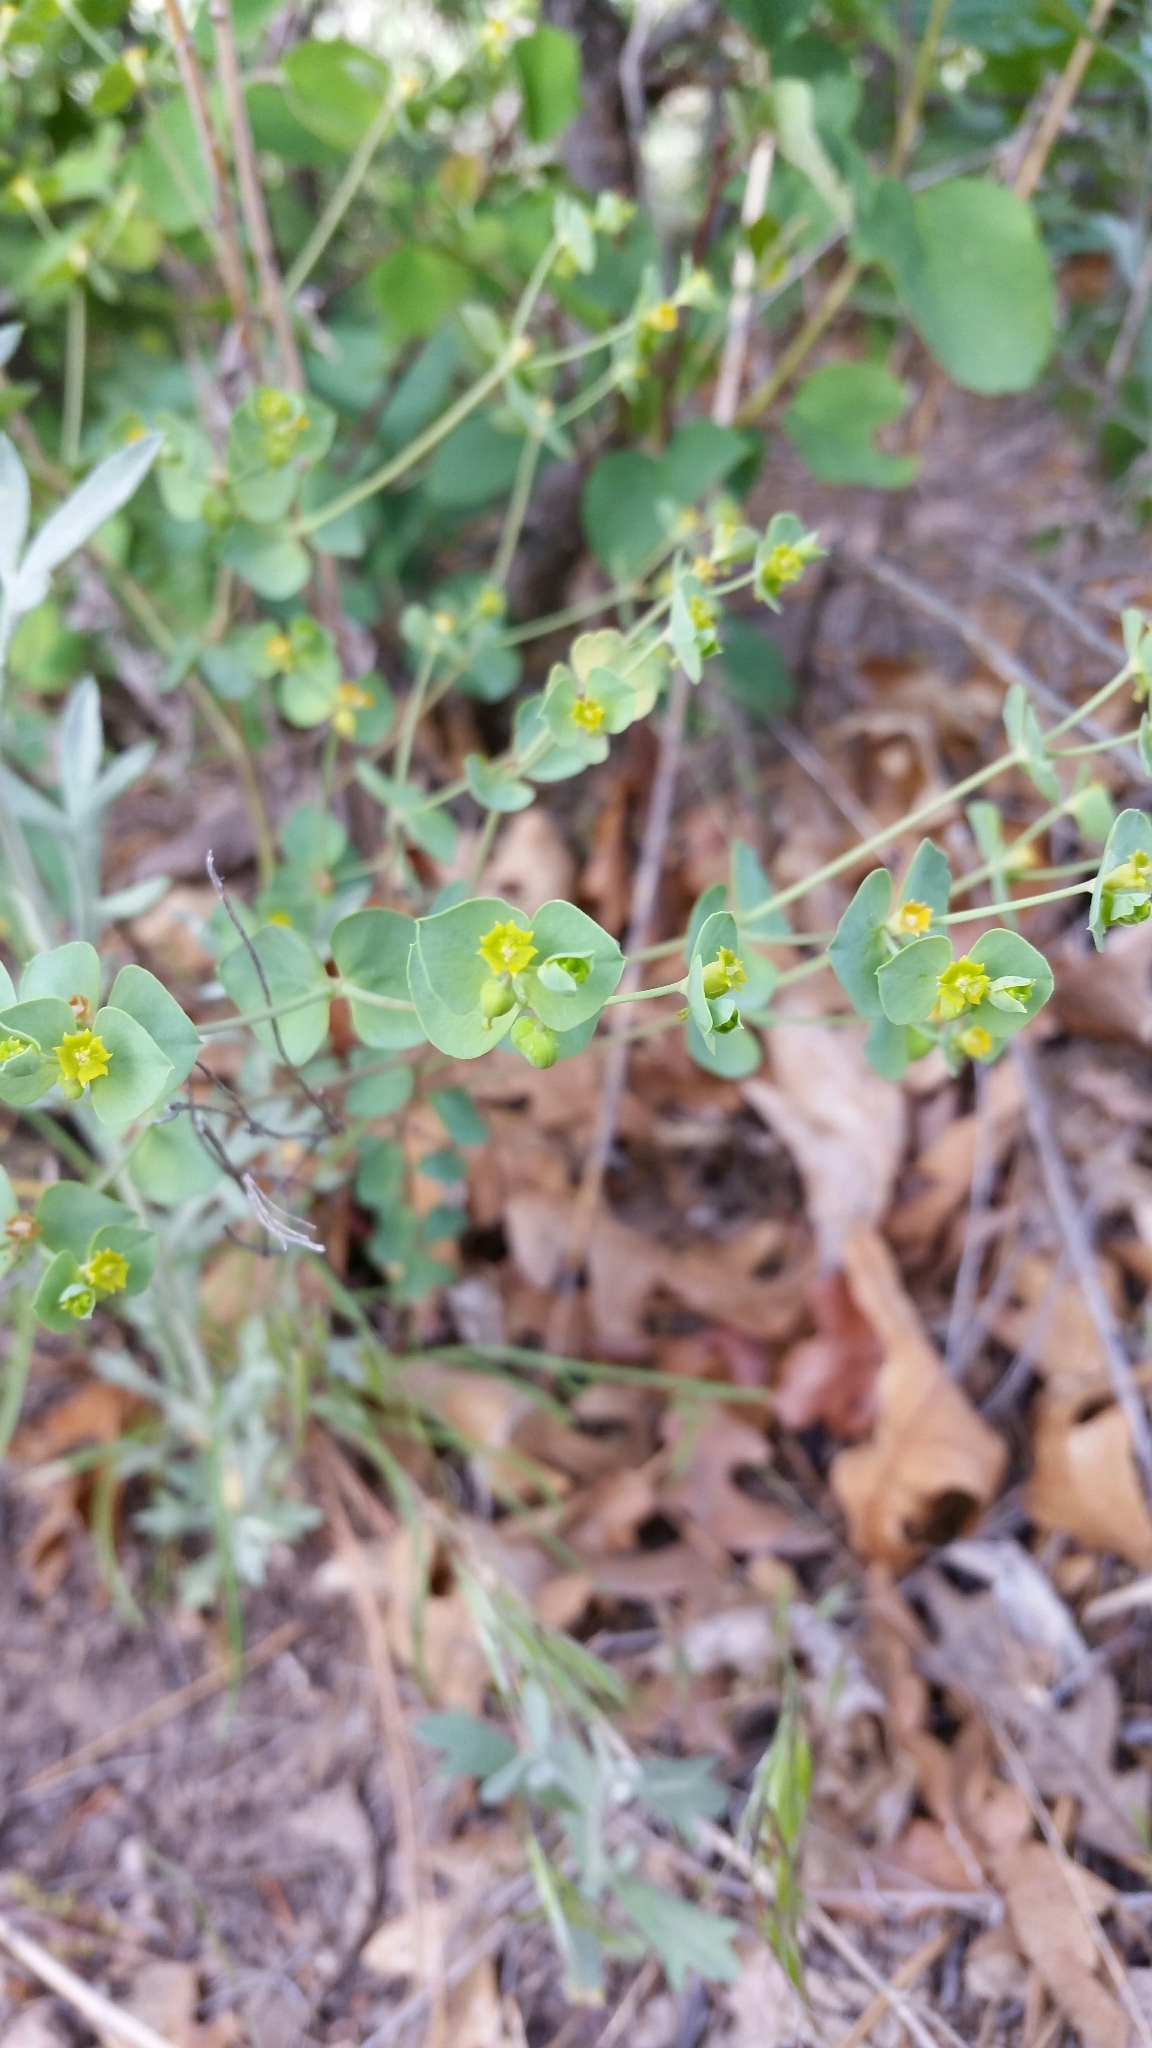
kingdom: Plantae
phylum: Tracheophyta
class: Magnoliopsida
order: Malpighiales
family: Euphorbiaceae
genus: Euphorbia
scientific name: Euphorbia brachycera
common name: Shorthorn spurge
